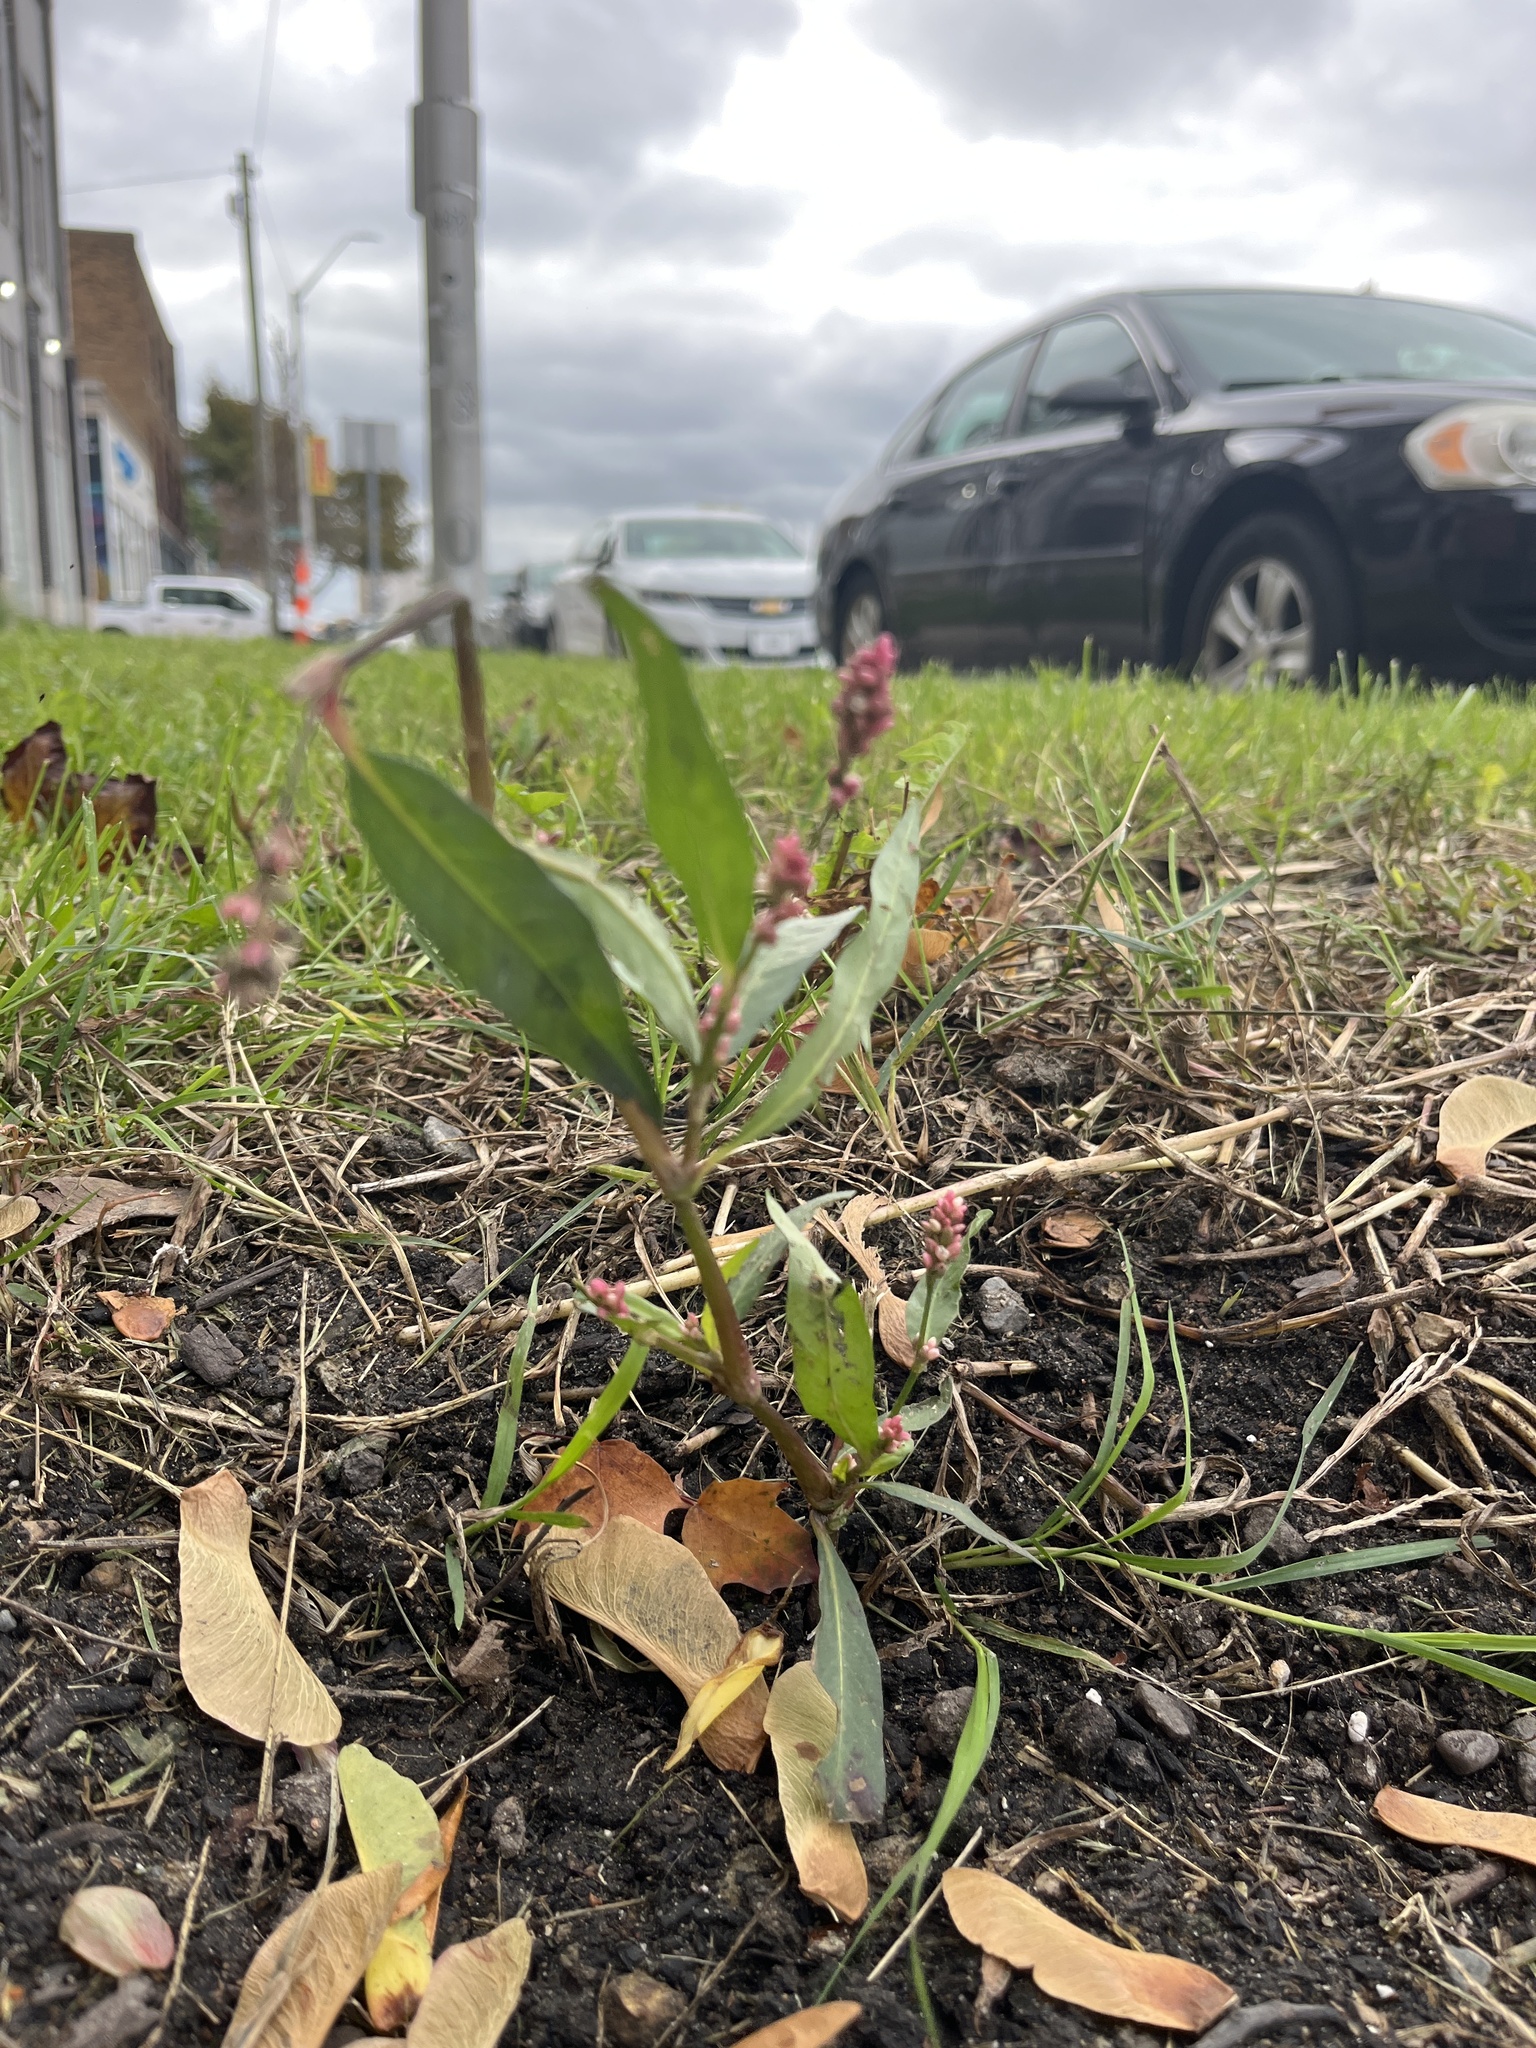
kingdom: Plantae
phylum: Tracheophyta
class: Magnoliopsida
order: Caryophyllales
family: Polygonaceae
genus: Persicaria
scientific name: Persicaria maculosa
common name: Redshank
